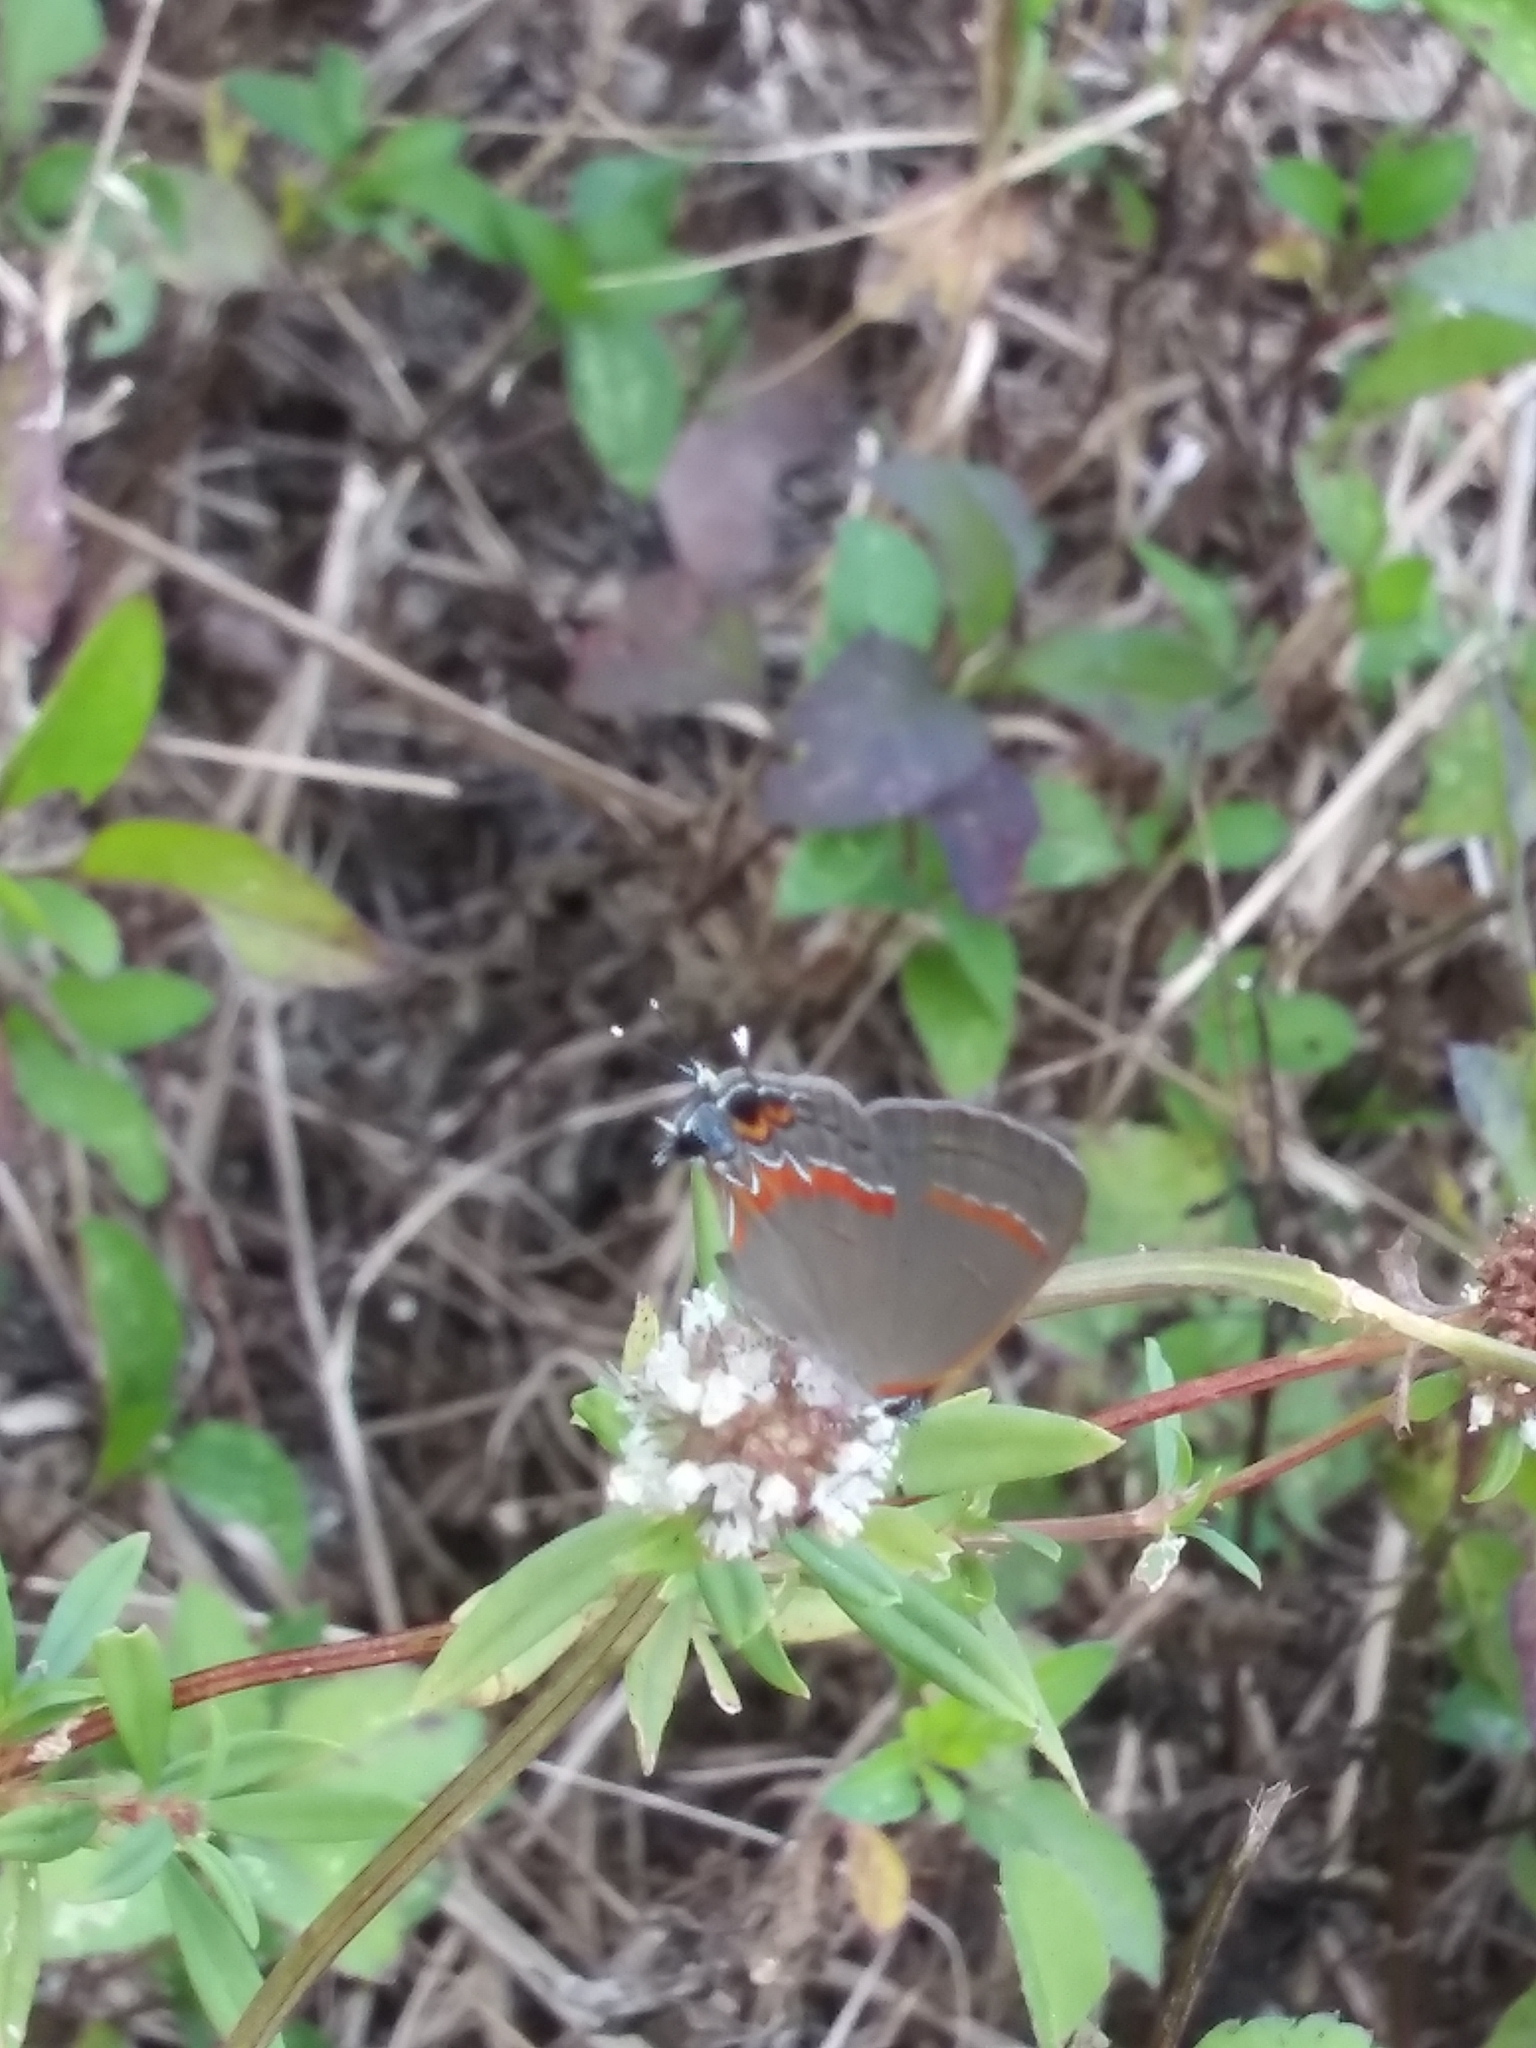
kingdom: Animalia
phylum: Arthropoda
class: Insecta
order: Lepidoptera
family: Lycaenidae
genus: Calycopis
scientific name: Calycopis cecrops
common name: Red-banded hairstreak
